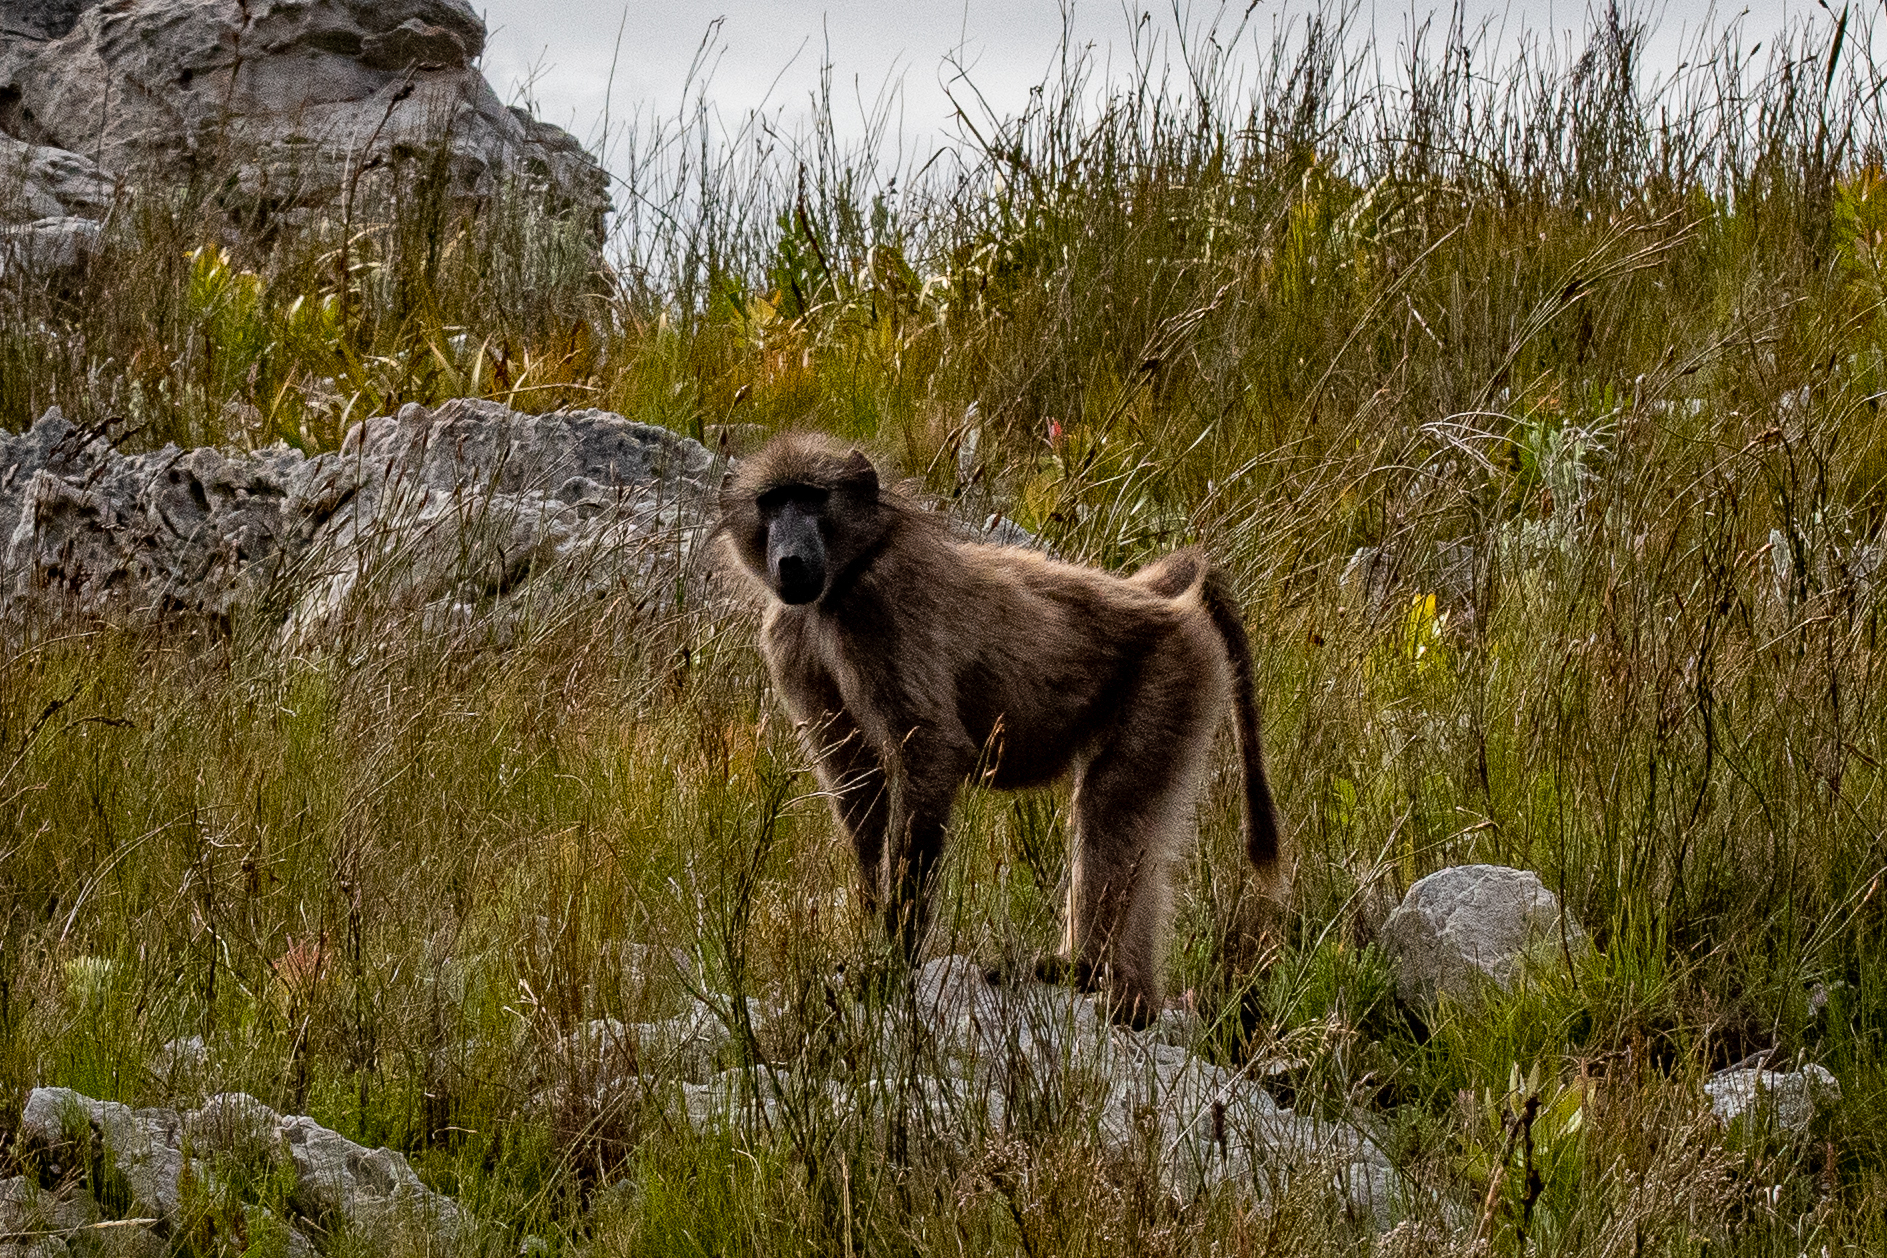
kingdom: Animalia
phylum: Chordata
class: Mammalia
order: Primates
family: Cercopithecidae
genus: Papio
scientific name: Papio ursinus
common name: Chacma baboon
